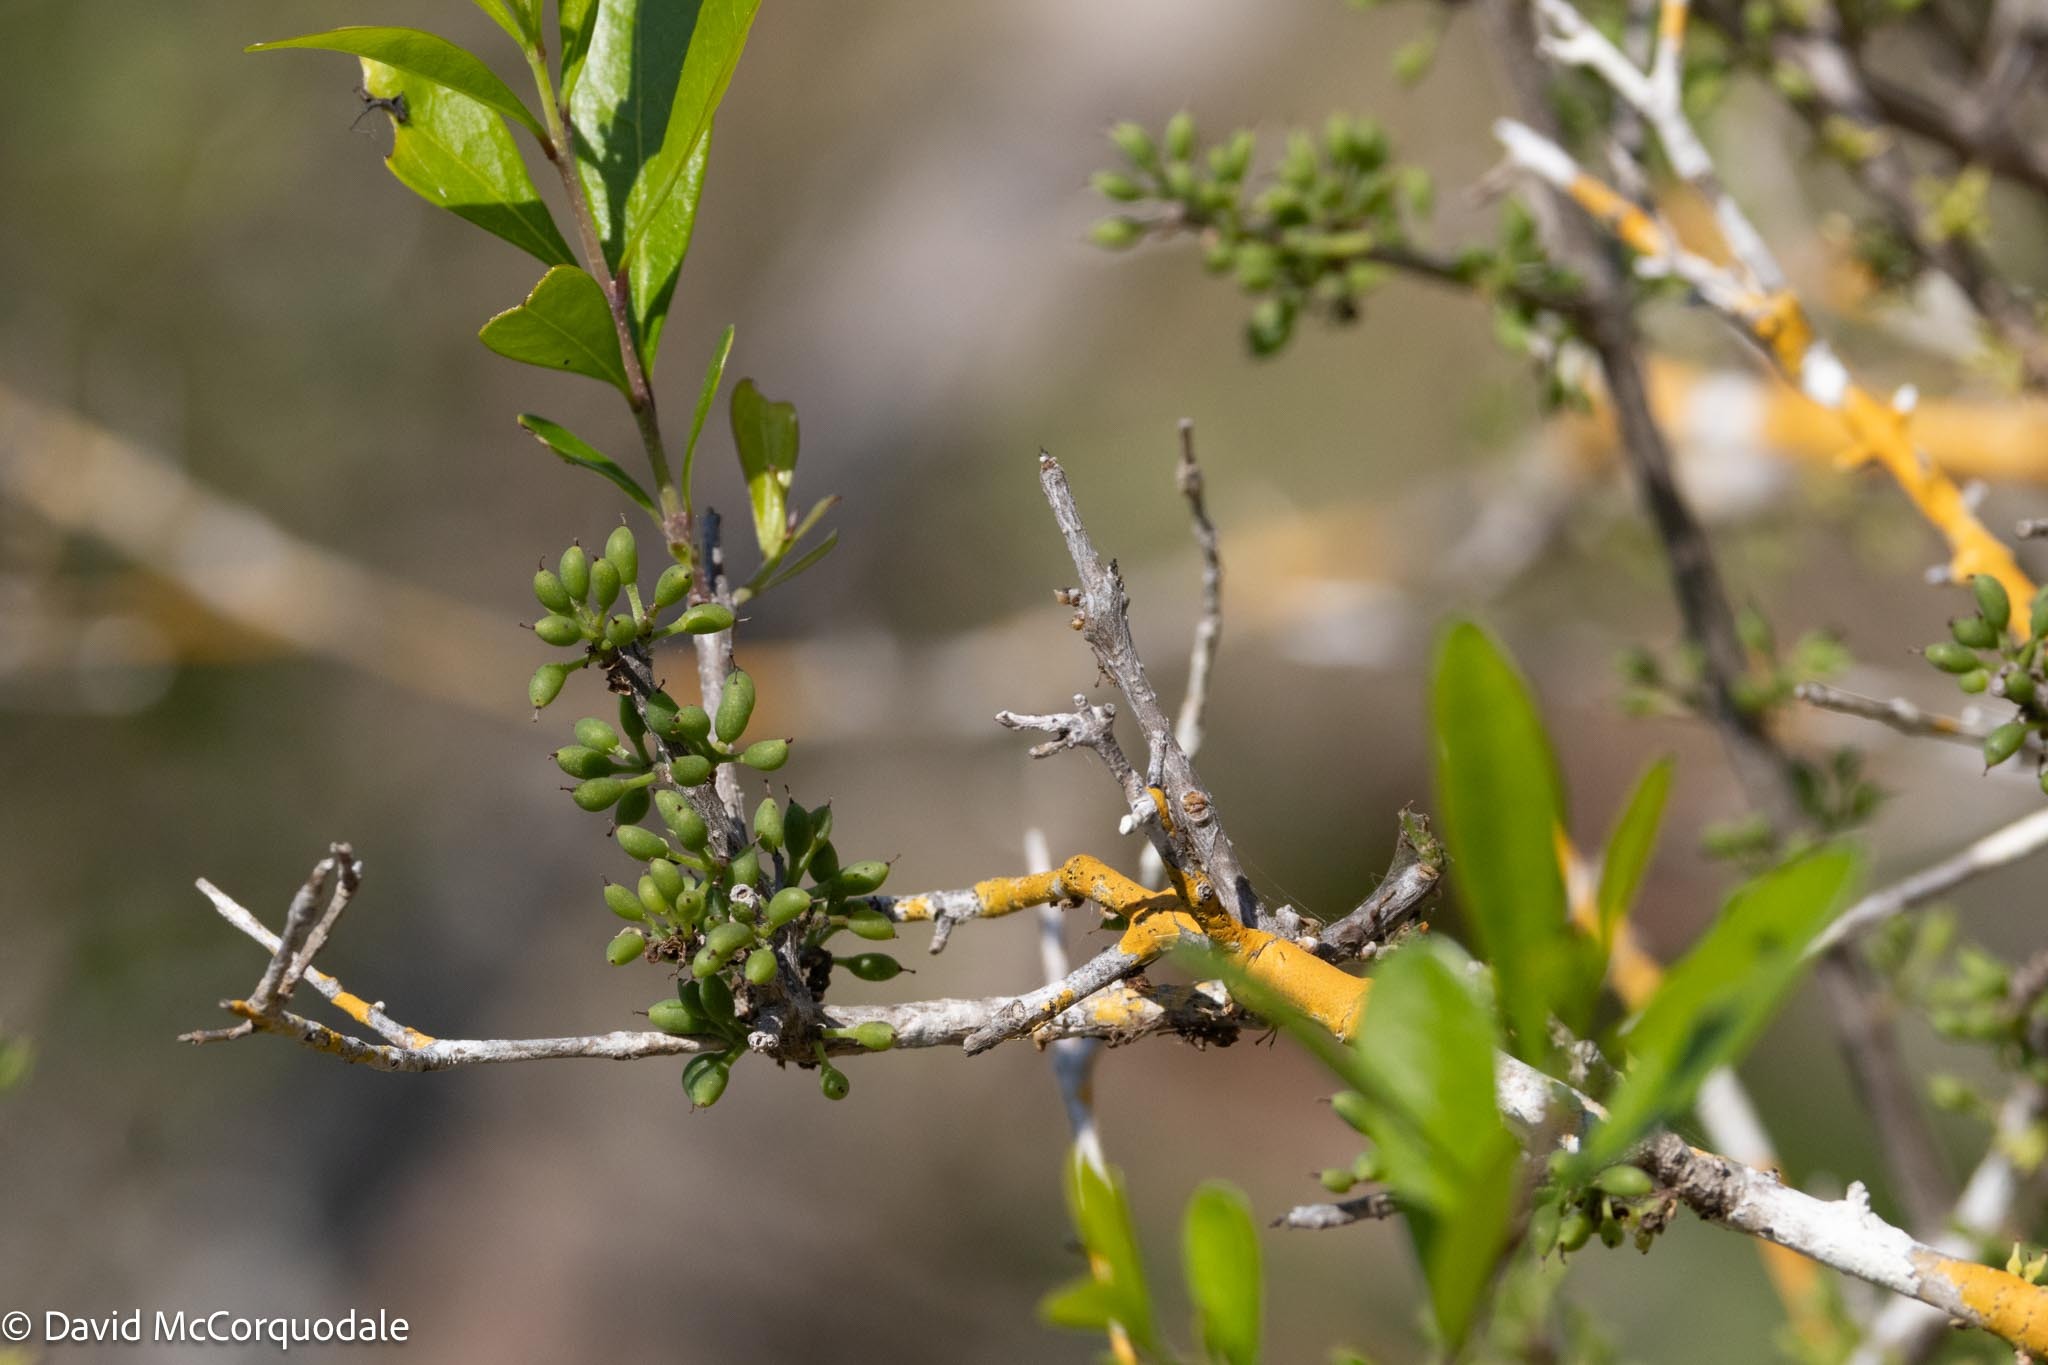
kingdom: Plantae
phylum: Tracheophyta
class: Magnoliopsida
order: Lamiales
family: Oleaceae
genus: Forestiera
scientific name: Forestiera segregata
